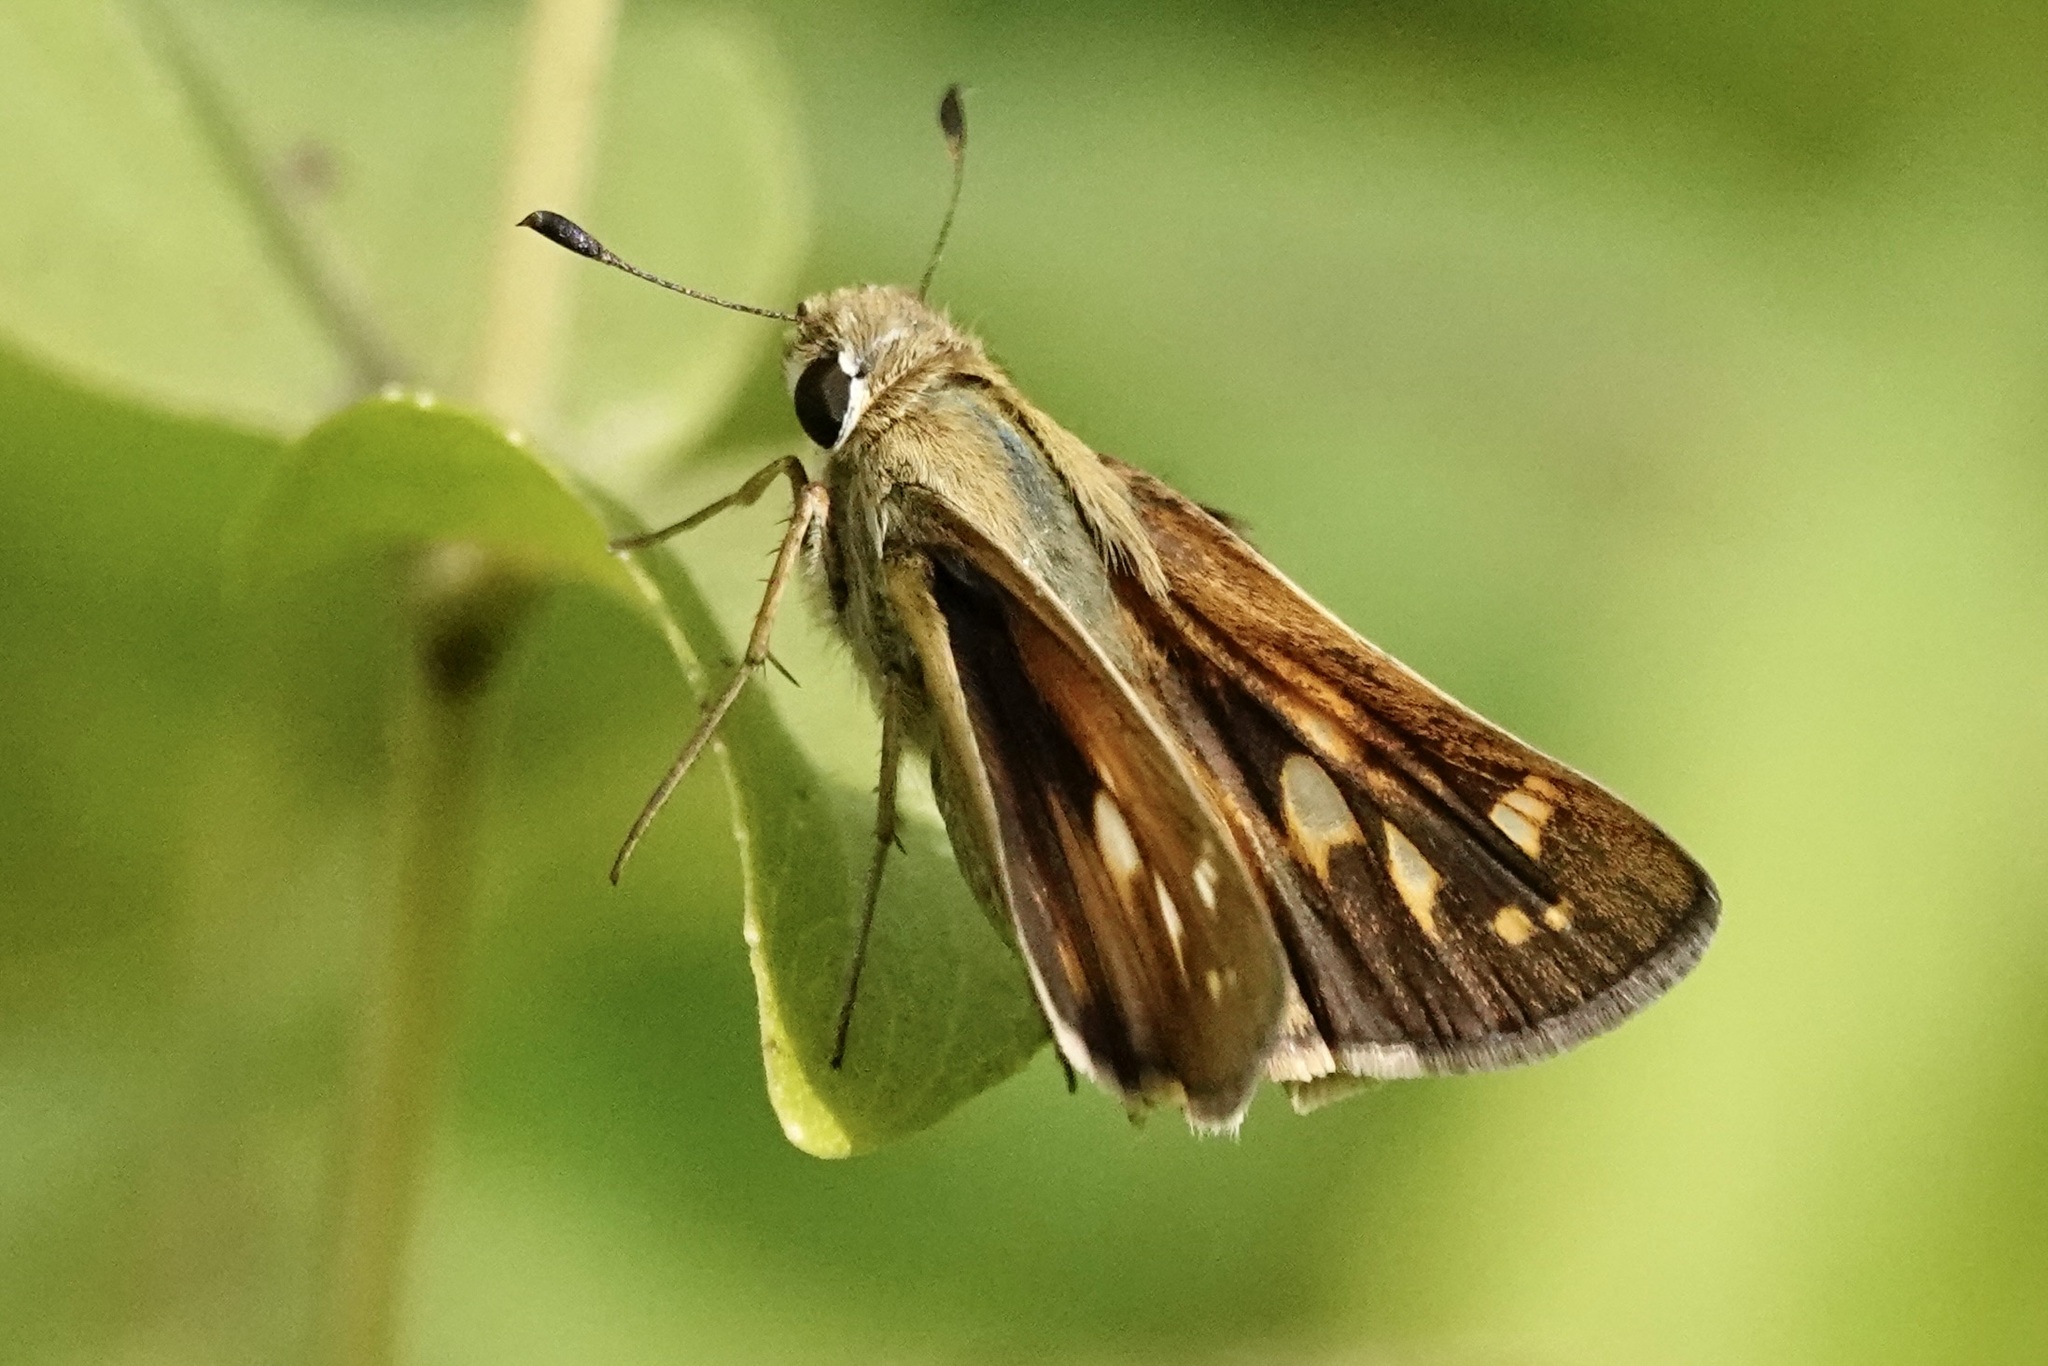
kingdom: Animalia
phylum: Arthropoda
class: Insecta
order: Lepidoptera
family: Hesperiidae
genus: Atalopedes
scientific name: Atalopedes
